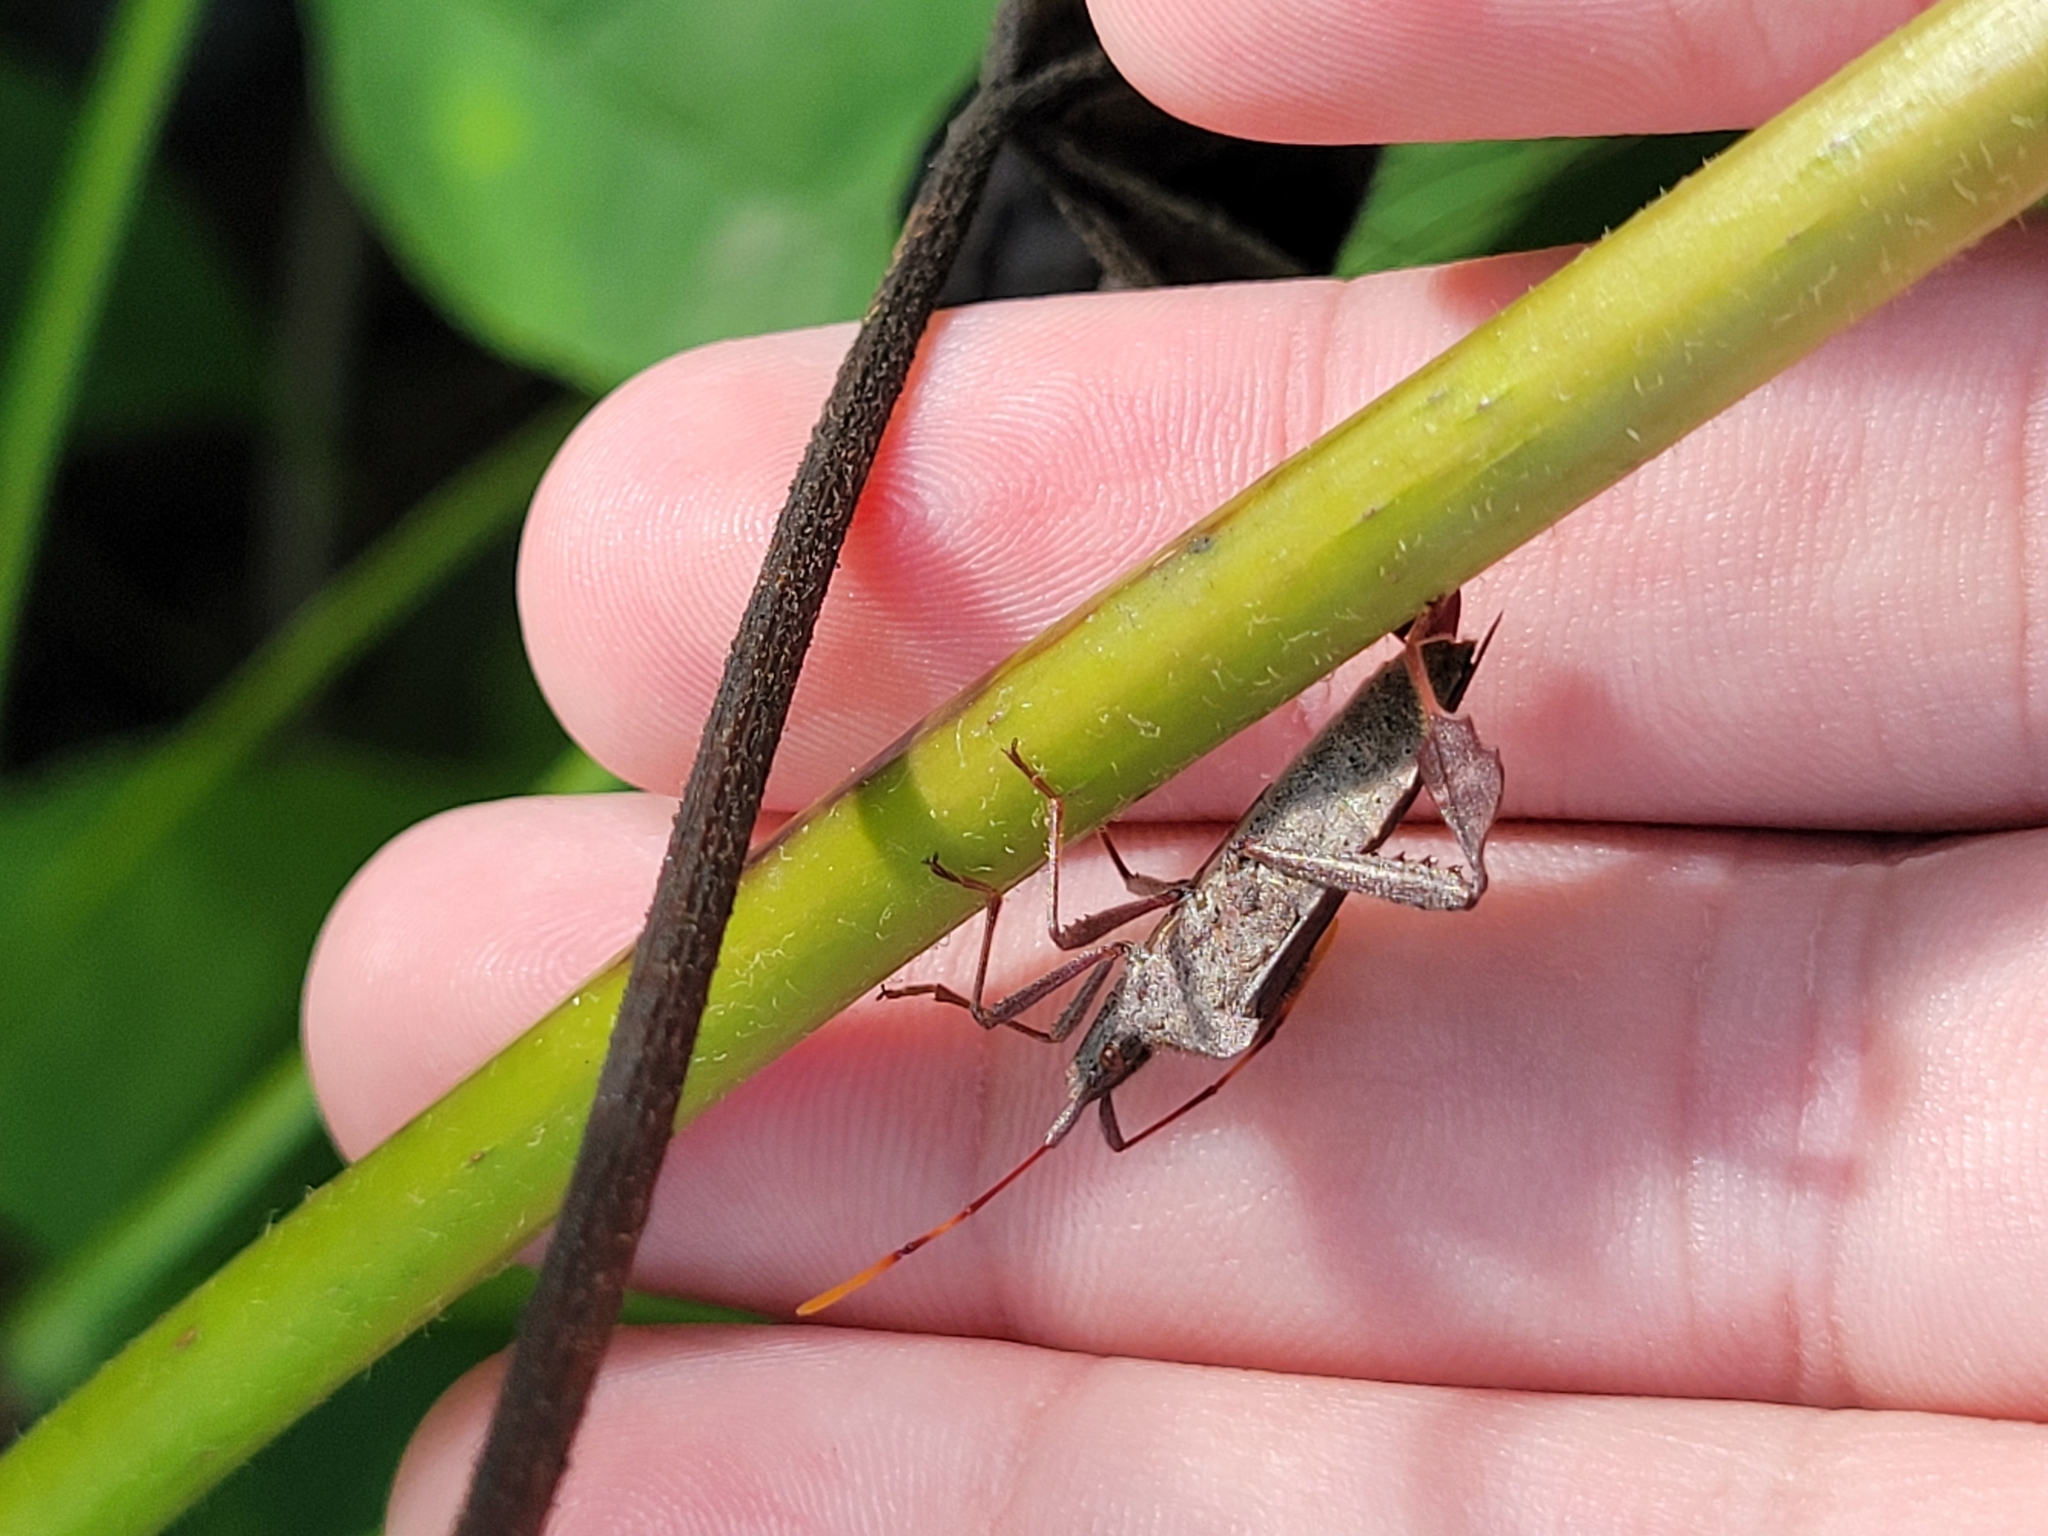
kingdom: Animalia
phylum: Arthropoda
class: Insecta
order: Hemiptera
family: Coreidae
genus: Leptoglossus
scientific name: Leptoglossus oppositus
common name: Northern leaf-footed bug
